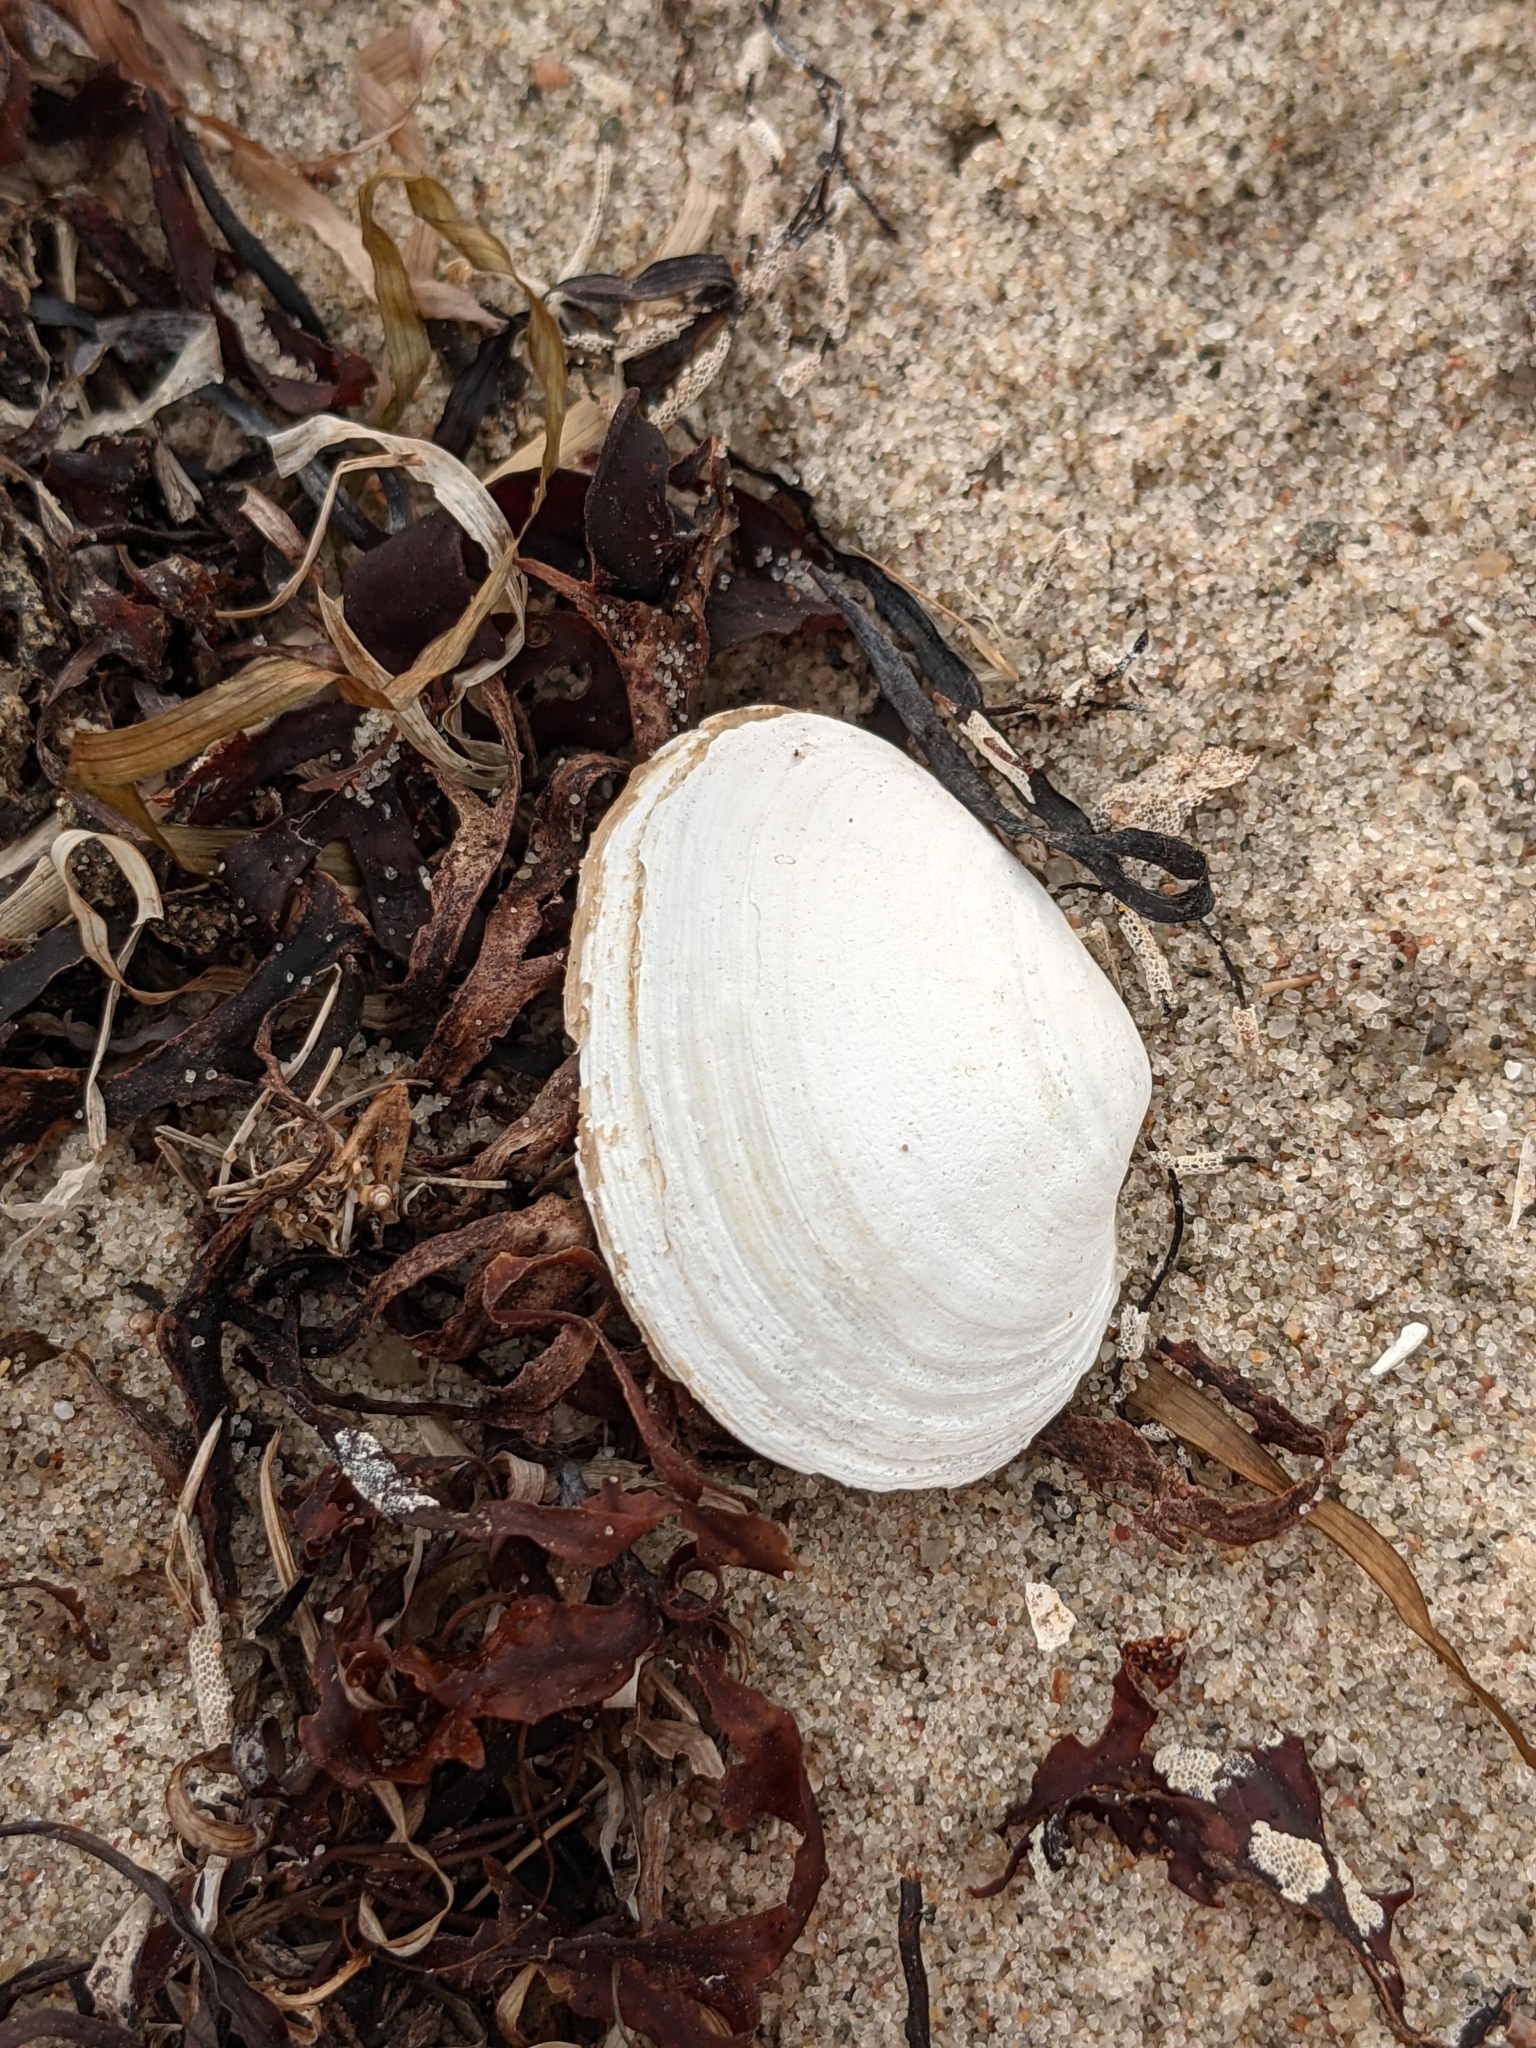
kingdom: Animalia
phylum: Mollusca
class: Bivalvia
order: Myida
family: Myidae
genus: Mya
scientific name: Mya arenaria
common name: Soft-shelled clam
